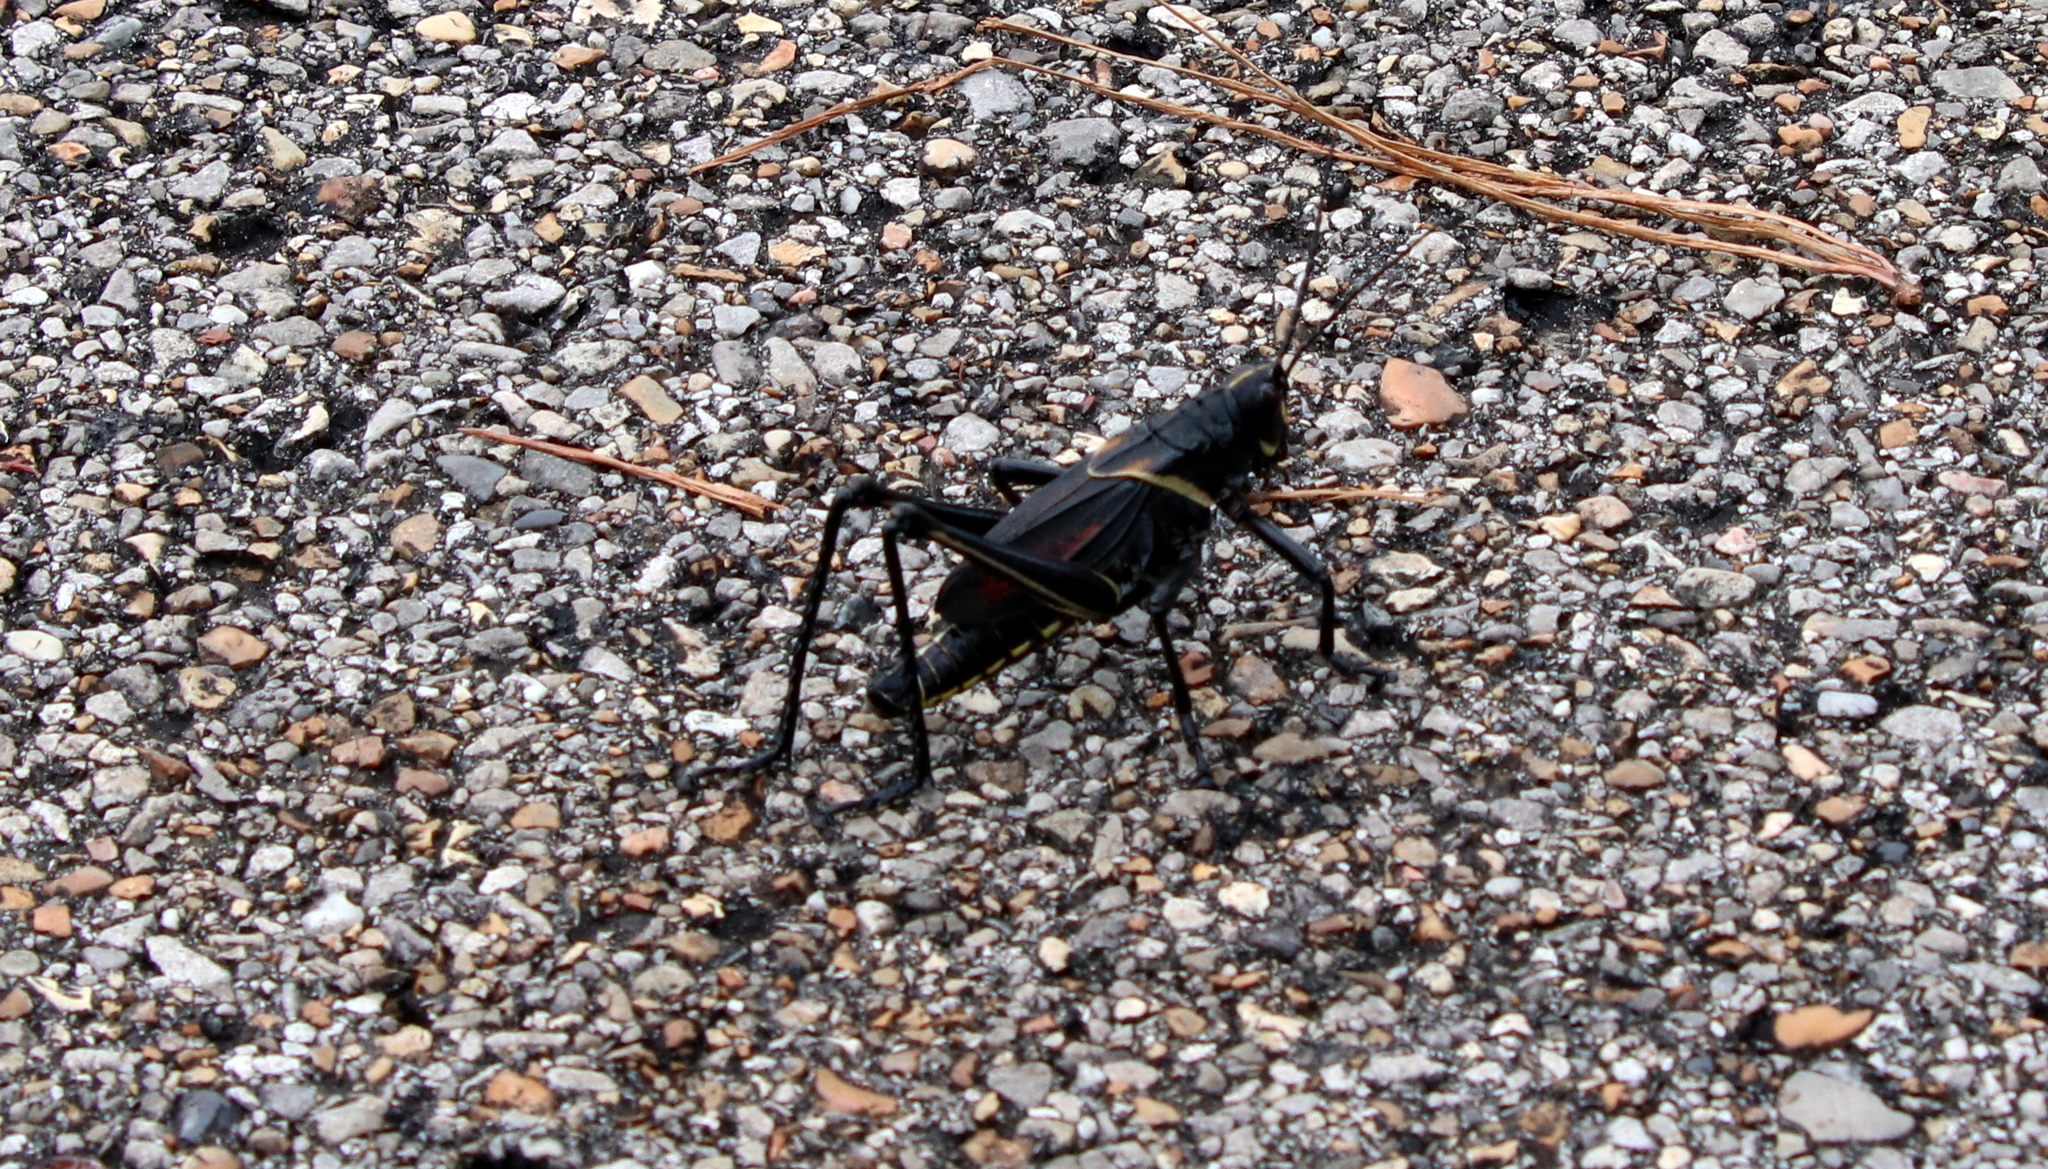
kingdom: Animalia
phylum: Arthropoda
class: Insecta
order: Orthoptera
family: Romaleidae
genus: Romalea
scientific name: Romalea microptera
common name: Eastern lubber grasshopper
